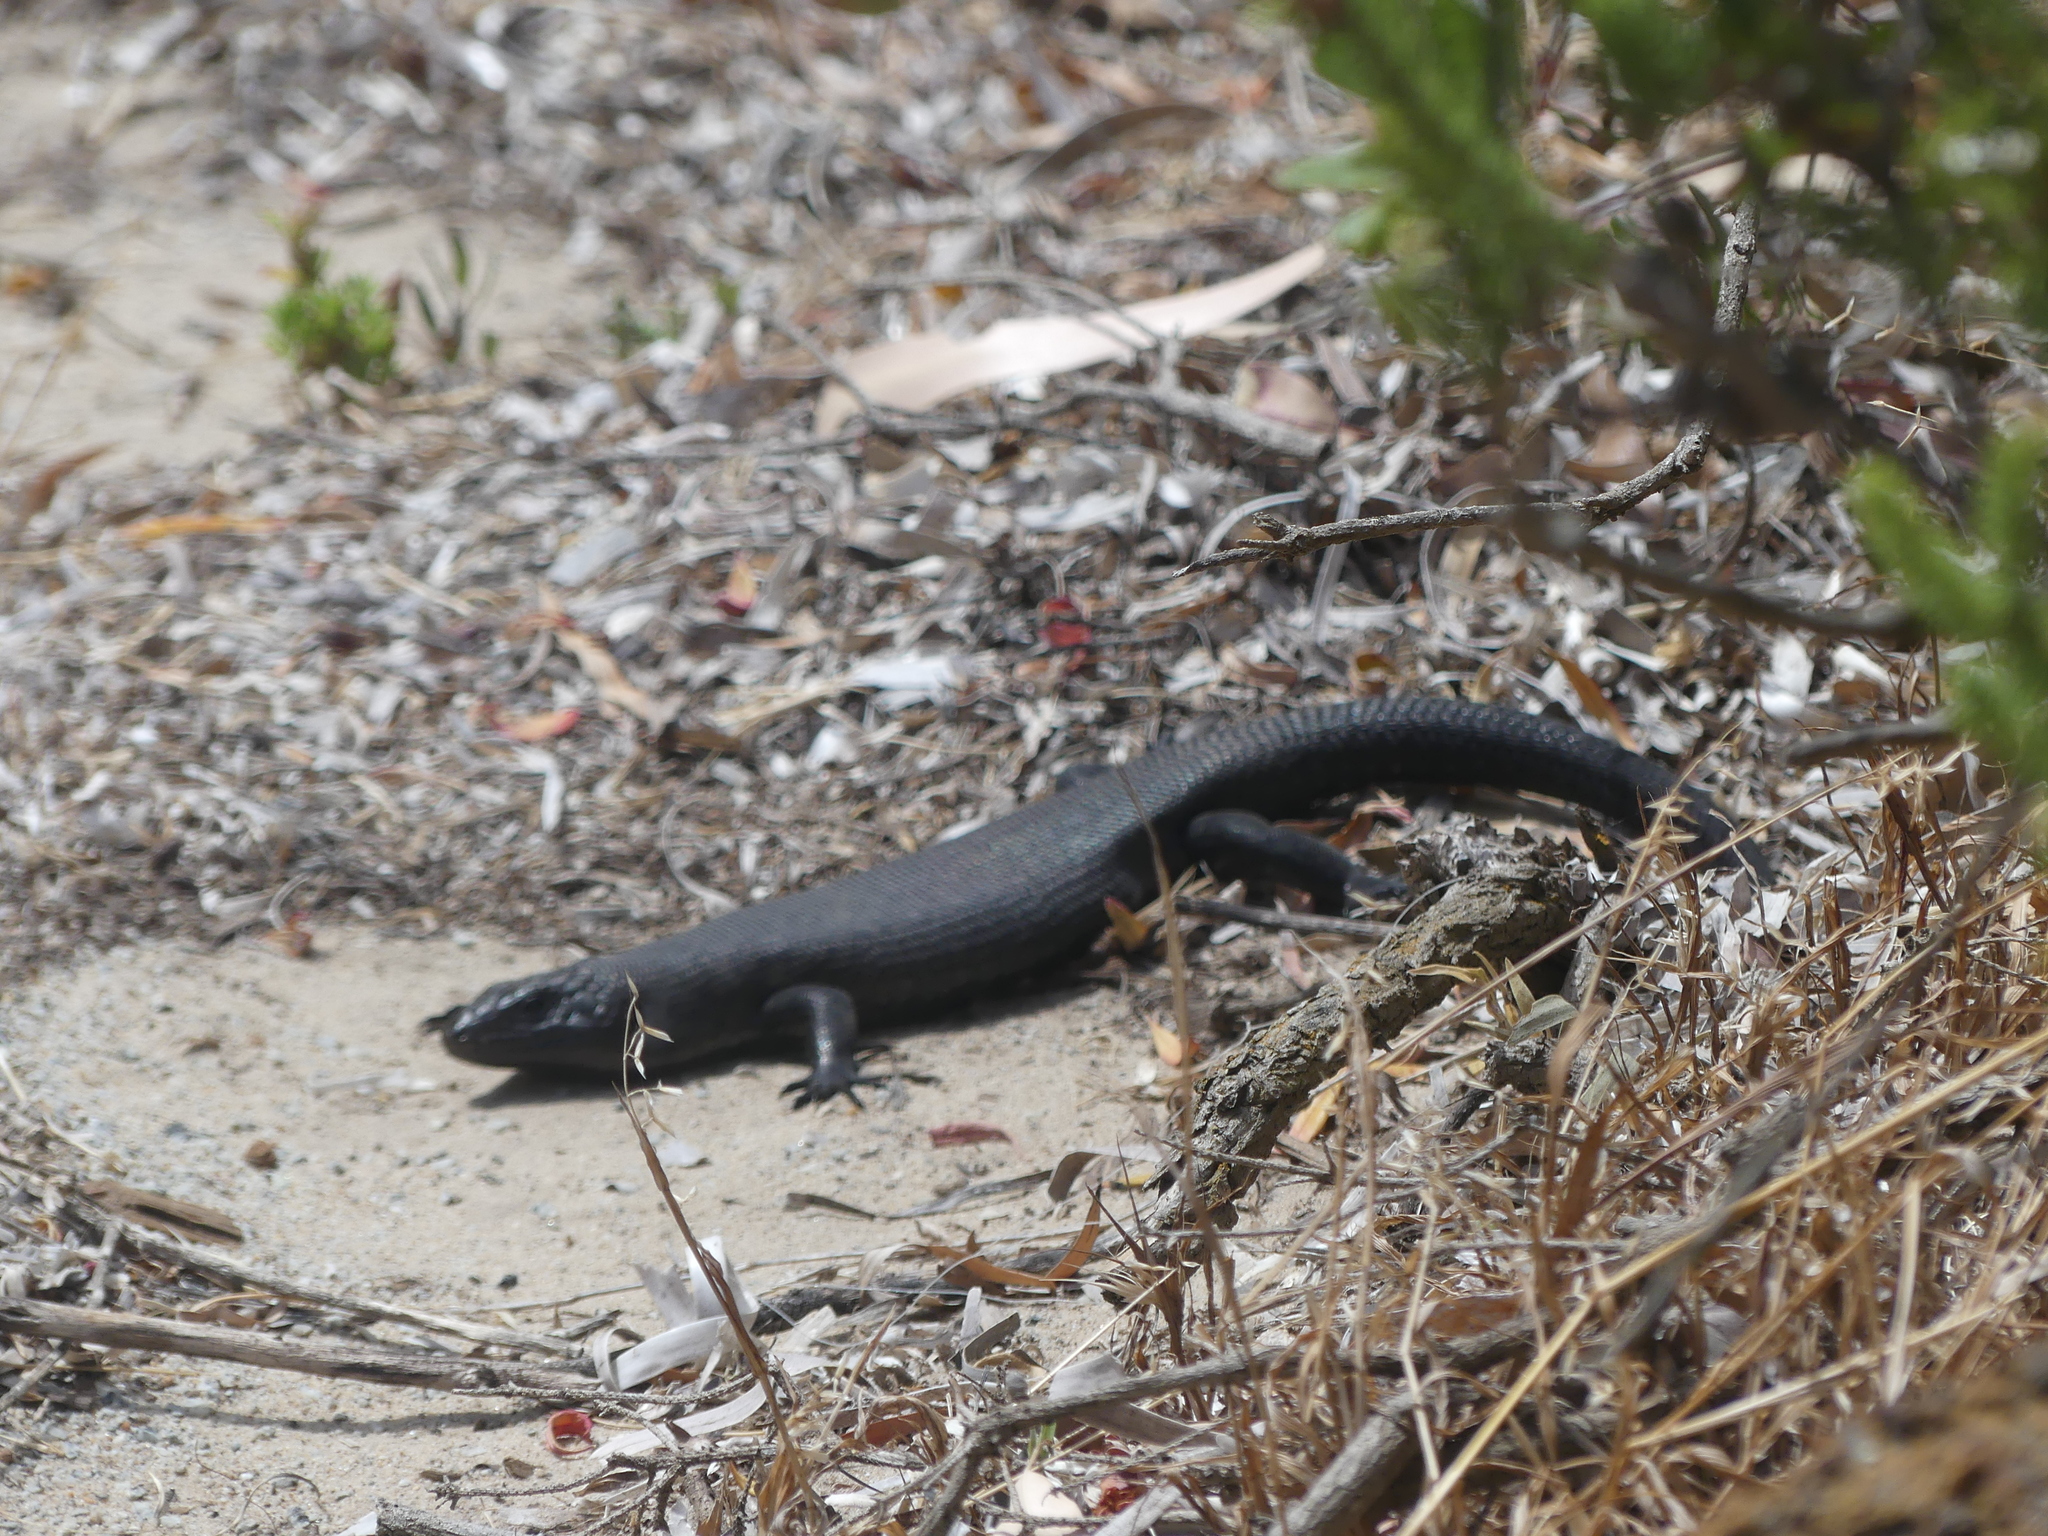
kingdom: Animalia
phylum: Chordata
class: Squamata
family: Scincidae
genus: Egernia
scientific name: Egernia kingii
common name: King's skink
